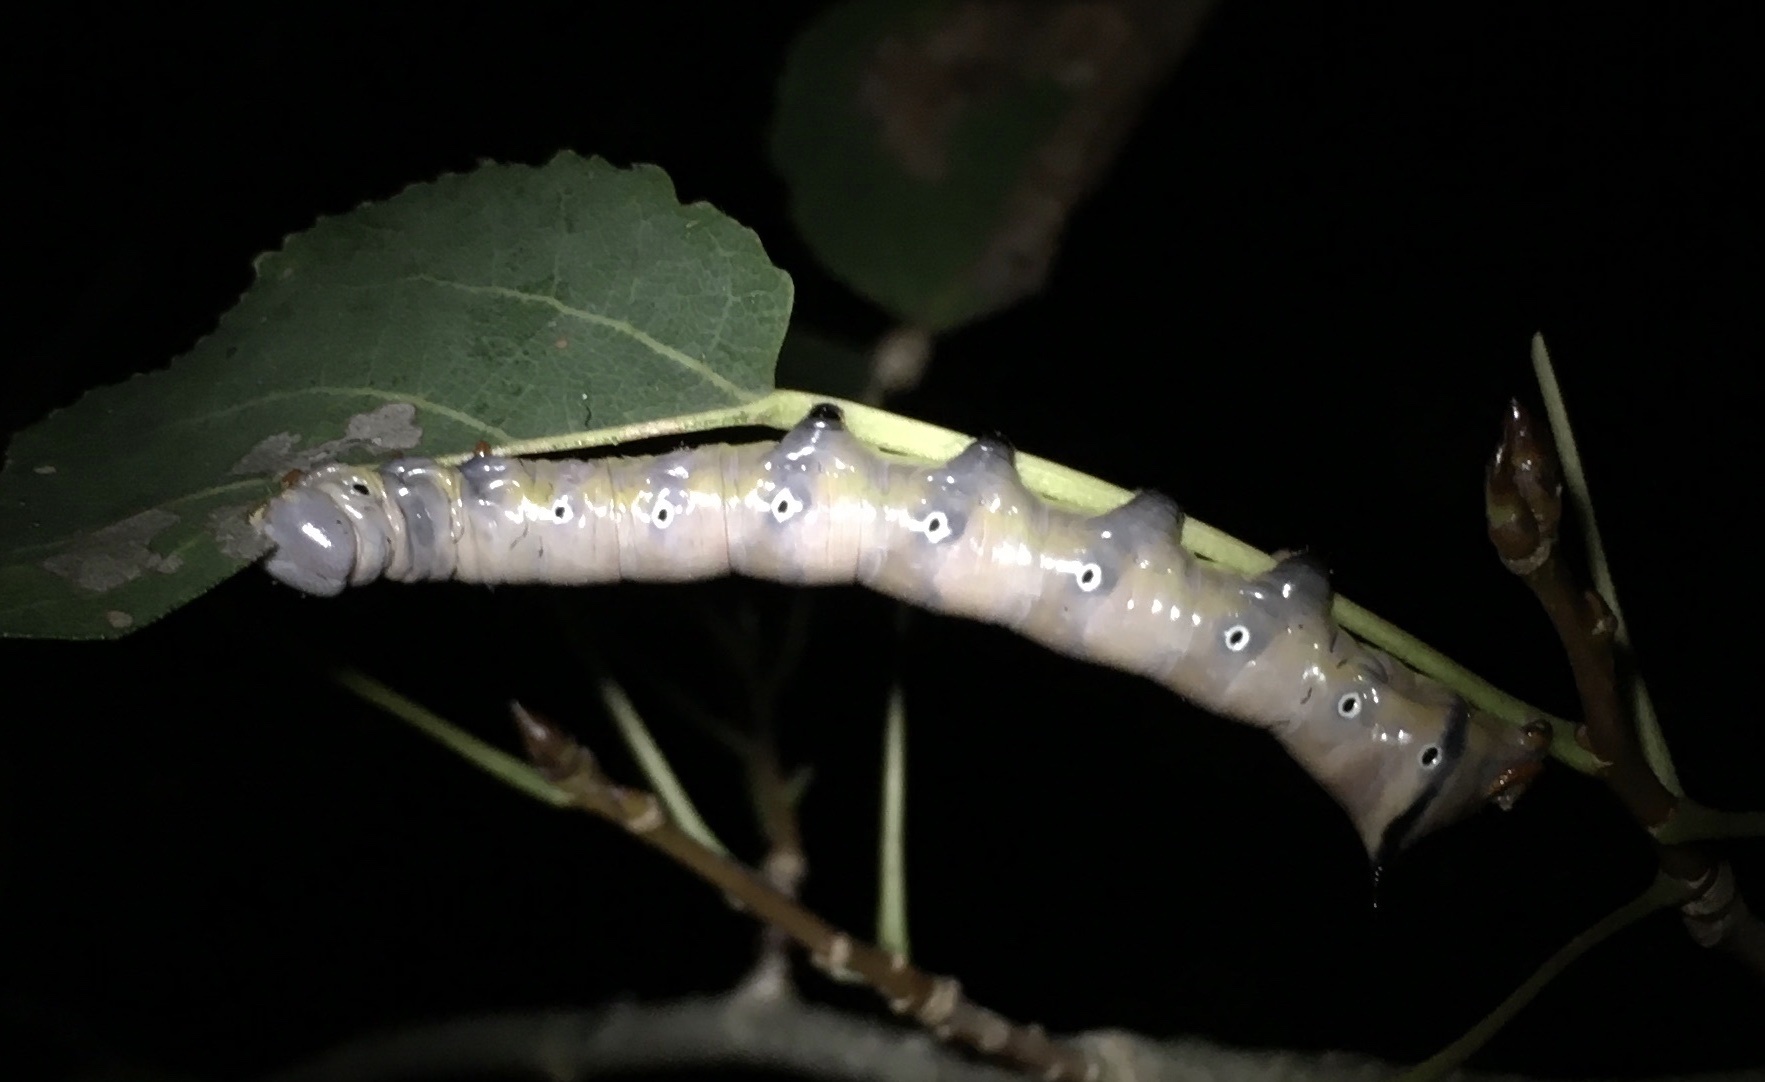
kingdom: Animalia
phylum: Arthropoda
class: Insecta
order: Lepidoptera
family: Notodontidae
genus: Pheosia
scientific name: Pheosia rimosa
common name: Black-rimmed prominent
